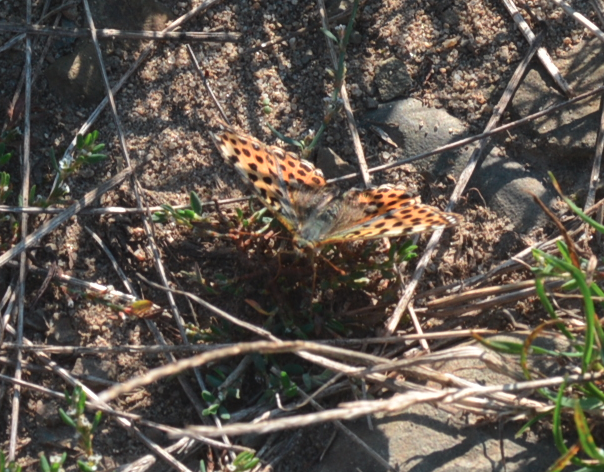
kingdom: Animalia
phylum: Arthropoda
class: Insecta
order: Lepidoptera
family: Nymphalidae
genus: Issoria
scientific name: Issoria lathonia
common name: Queen of spain fritillary
